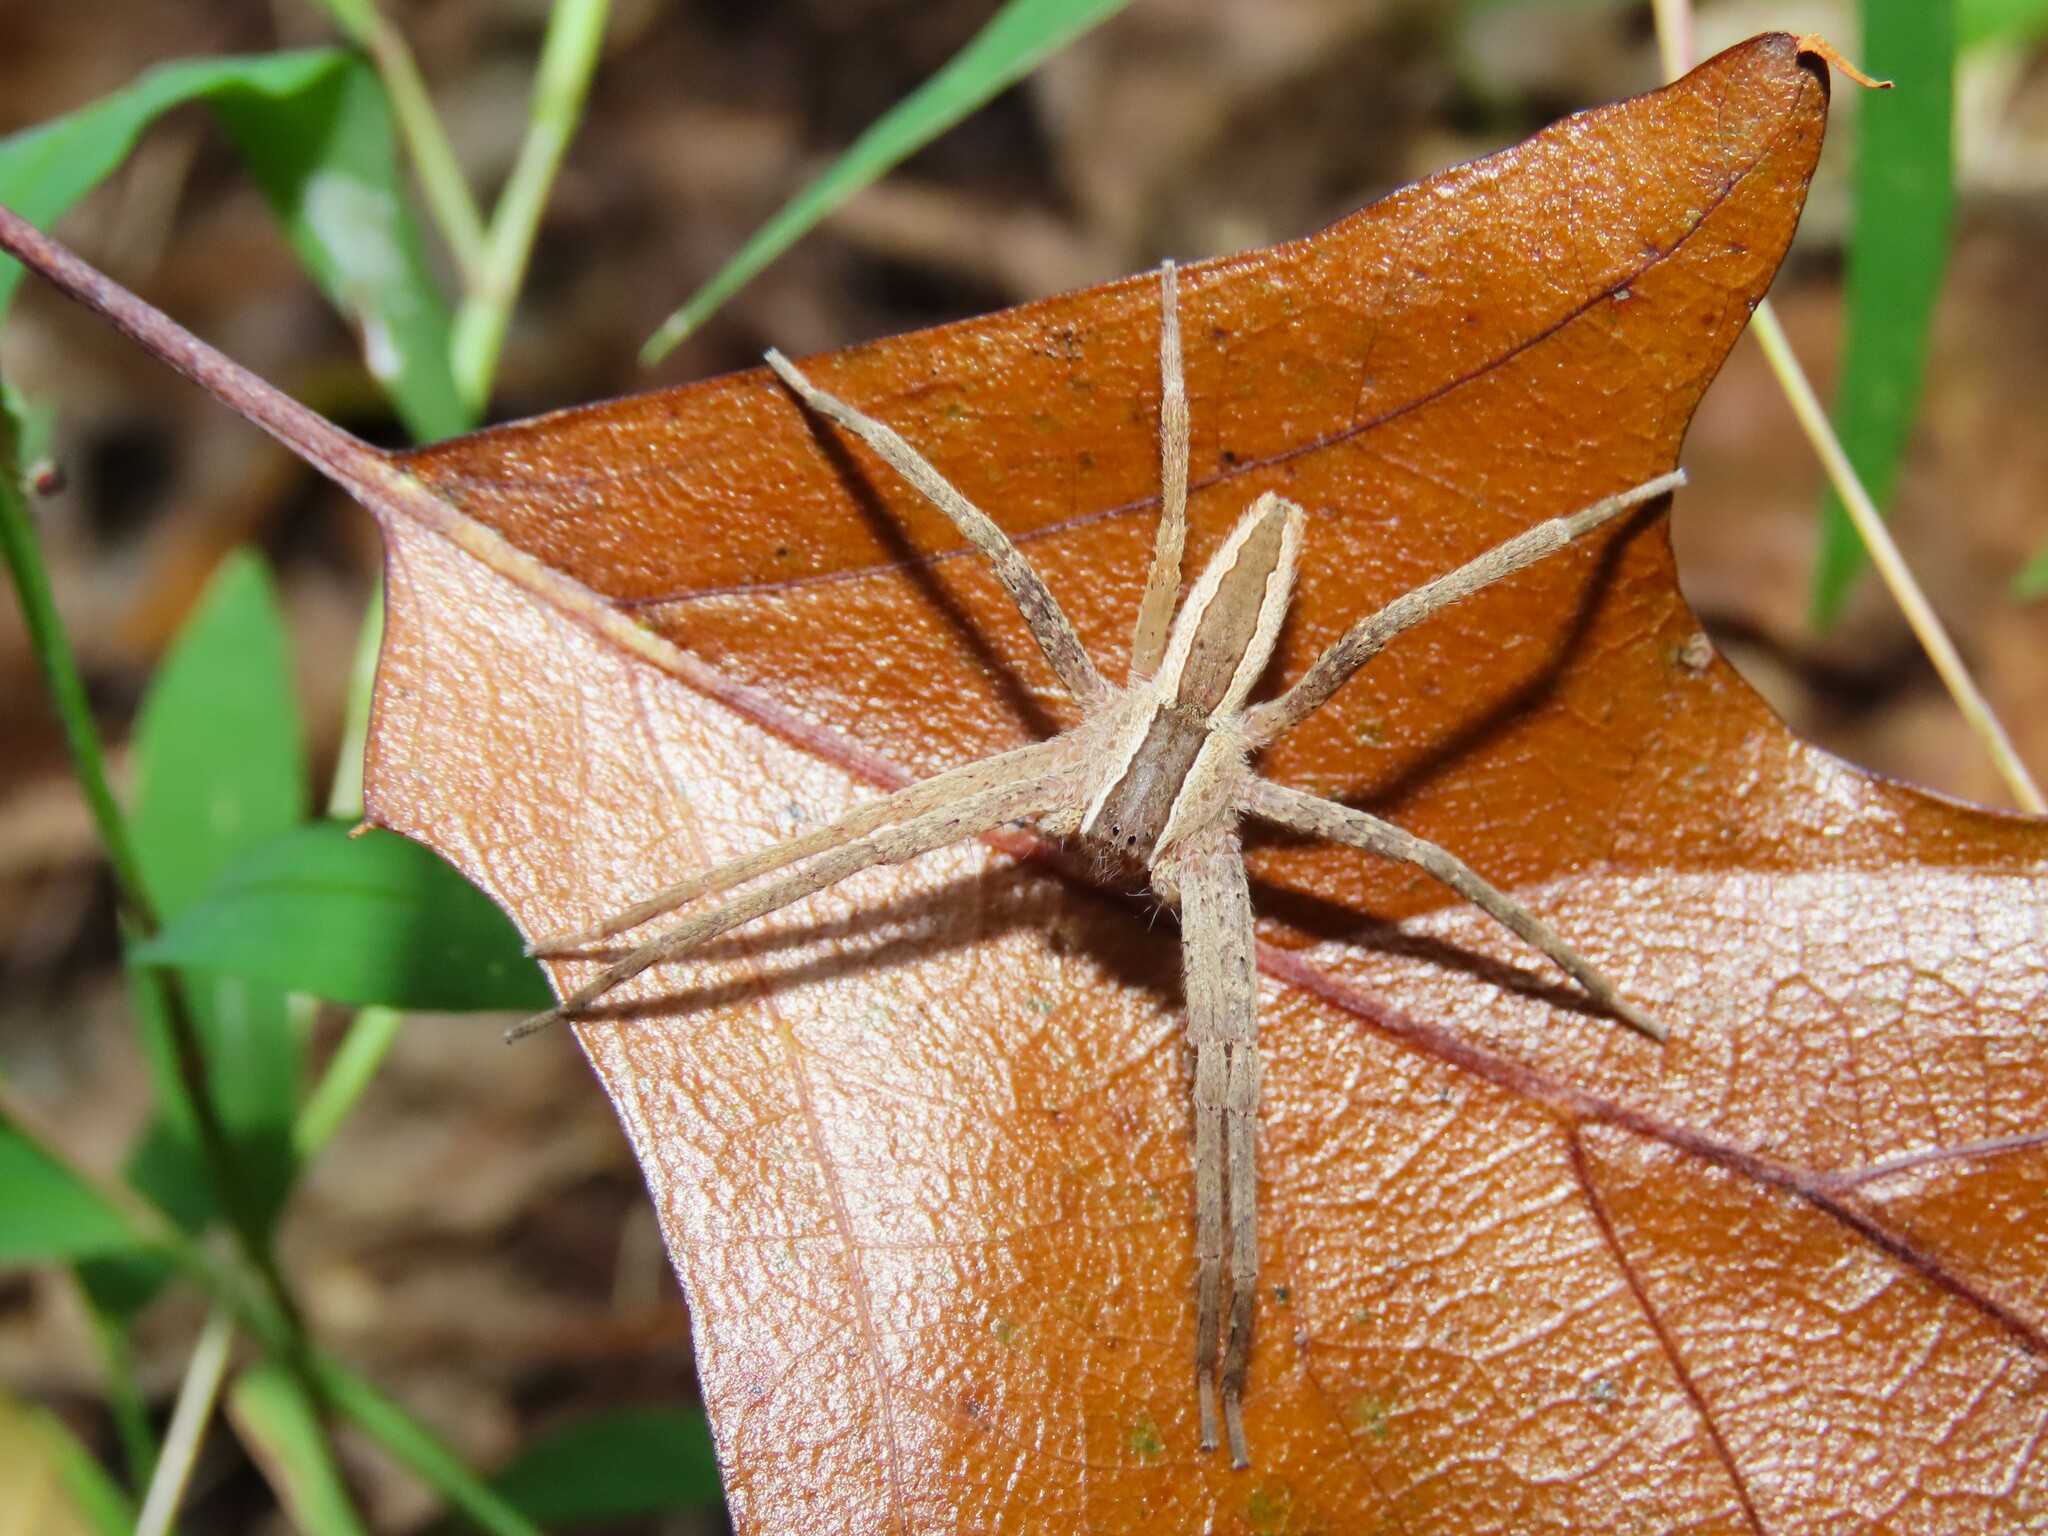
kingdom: Animalia
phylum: Arthropoda
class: Arachnida
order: Araneae
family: Pisauridae
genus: Pisaurina
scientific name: Pisaurina mira
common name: American nursery web spider
